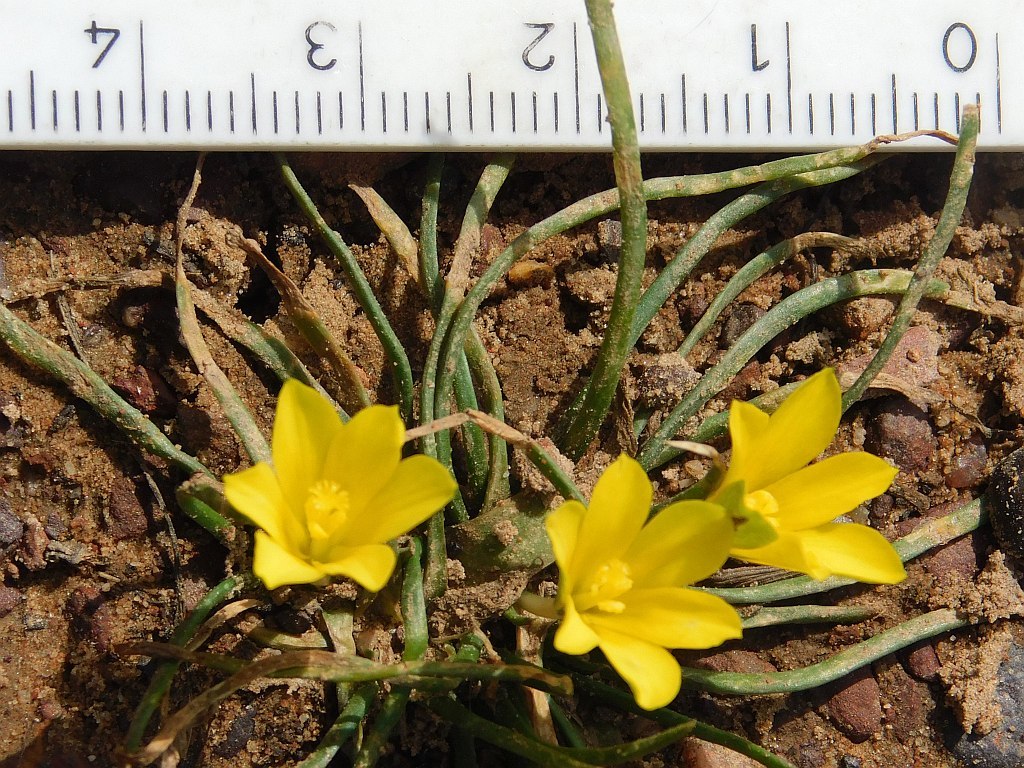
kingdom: Plantae
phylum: Tracheophyta
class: Liliopsida
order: Asparagales
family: Iridaceae
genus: Moraea
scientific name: Moraea fugacissima
